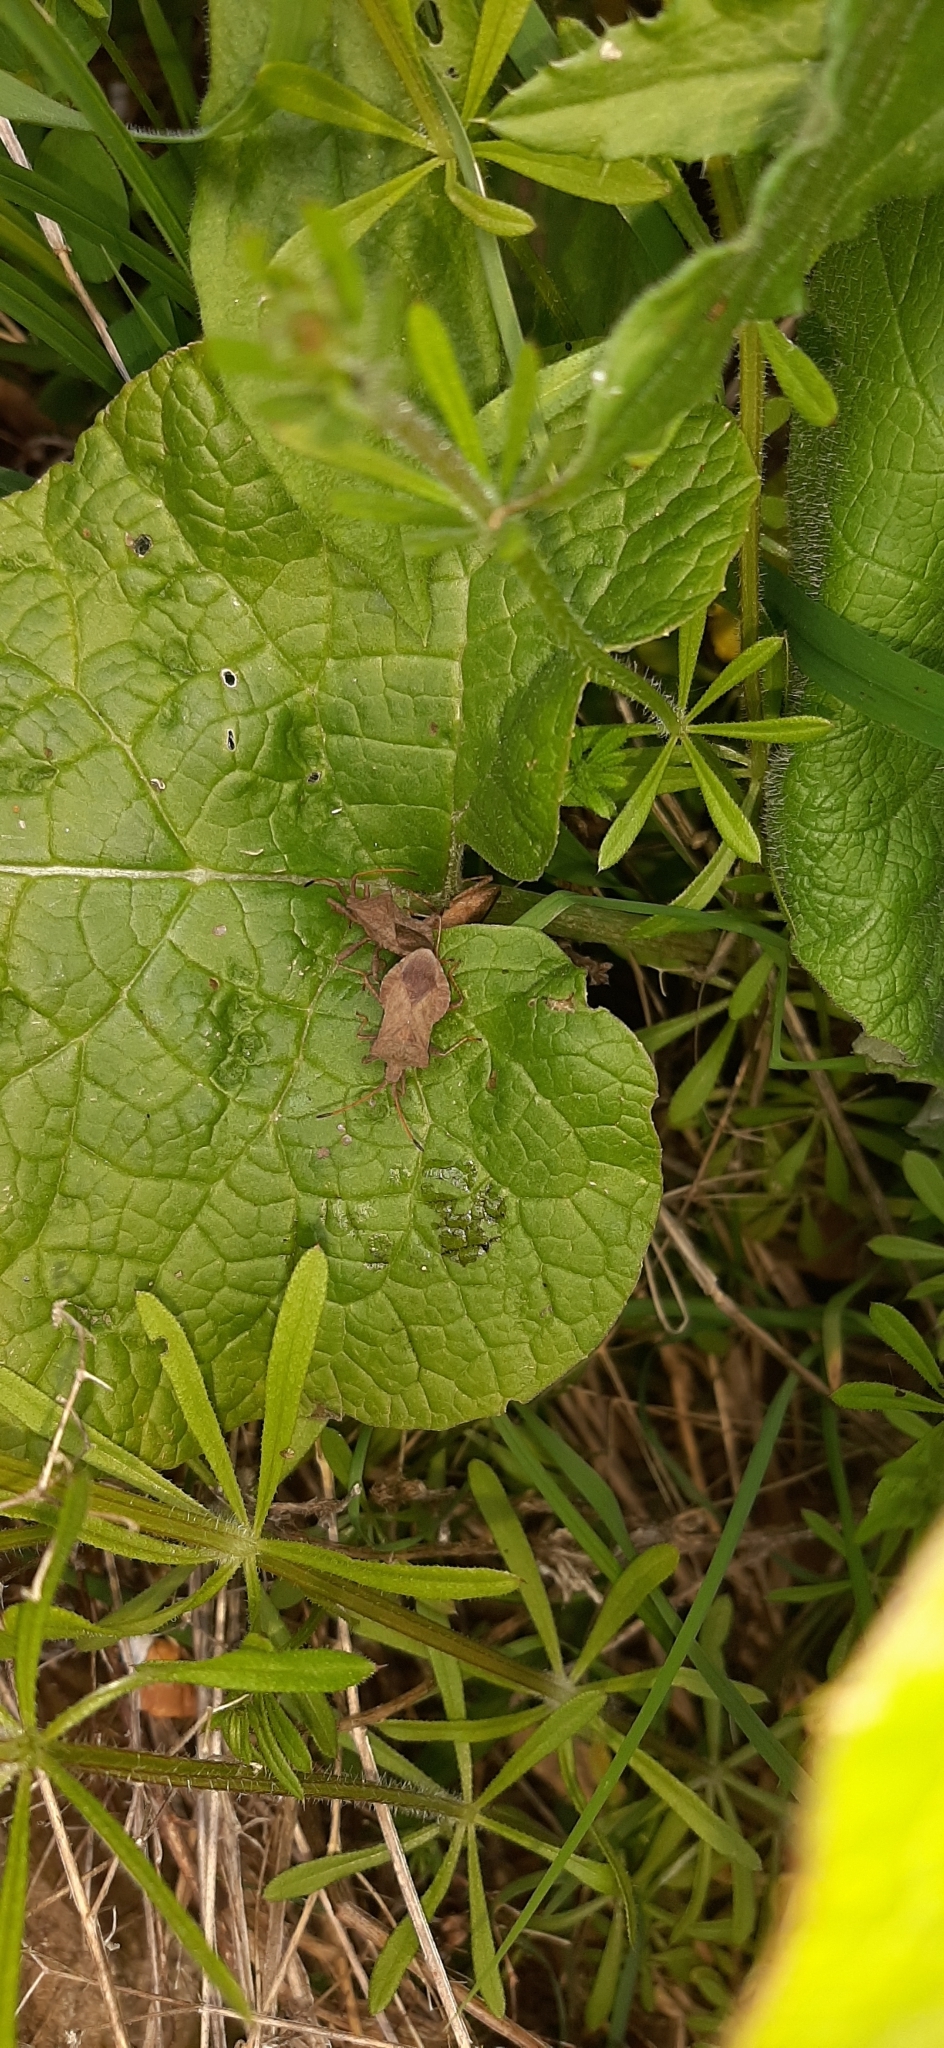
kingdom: Animalia
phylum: Arthropoda
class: Insecta
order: Hemiptera
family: Coreidae
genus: Coreus
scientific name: Coreus marginatus
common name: Dock bug
